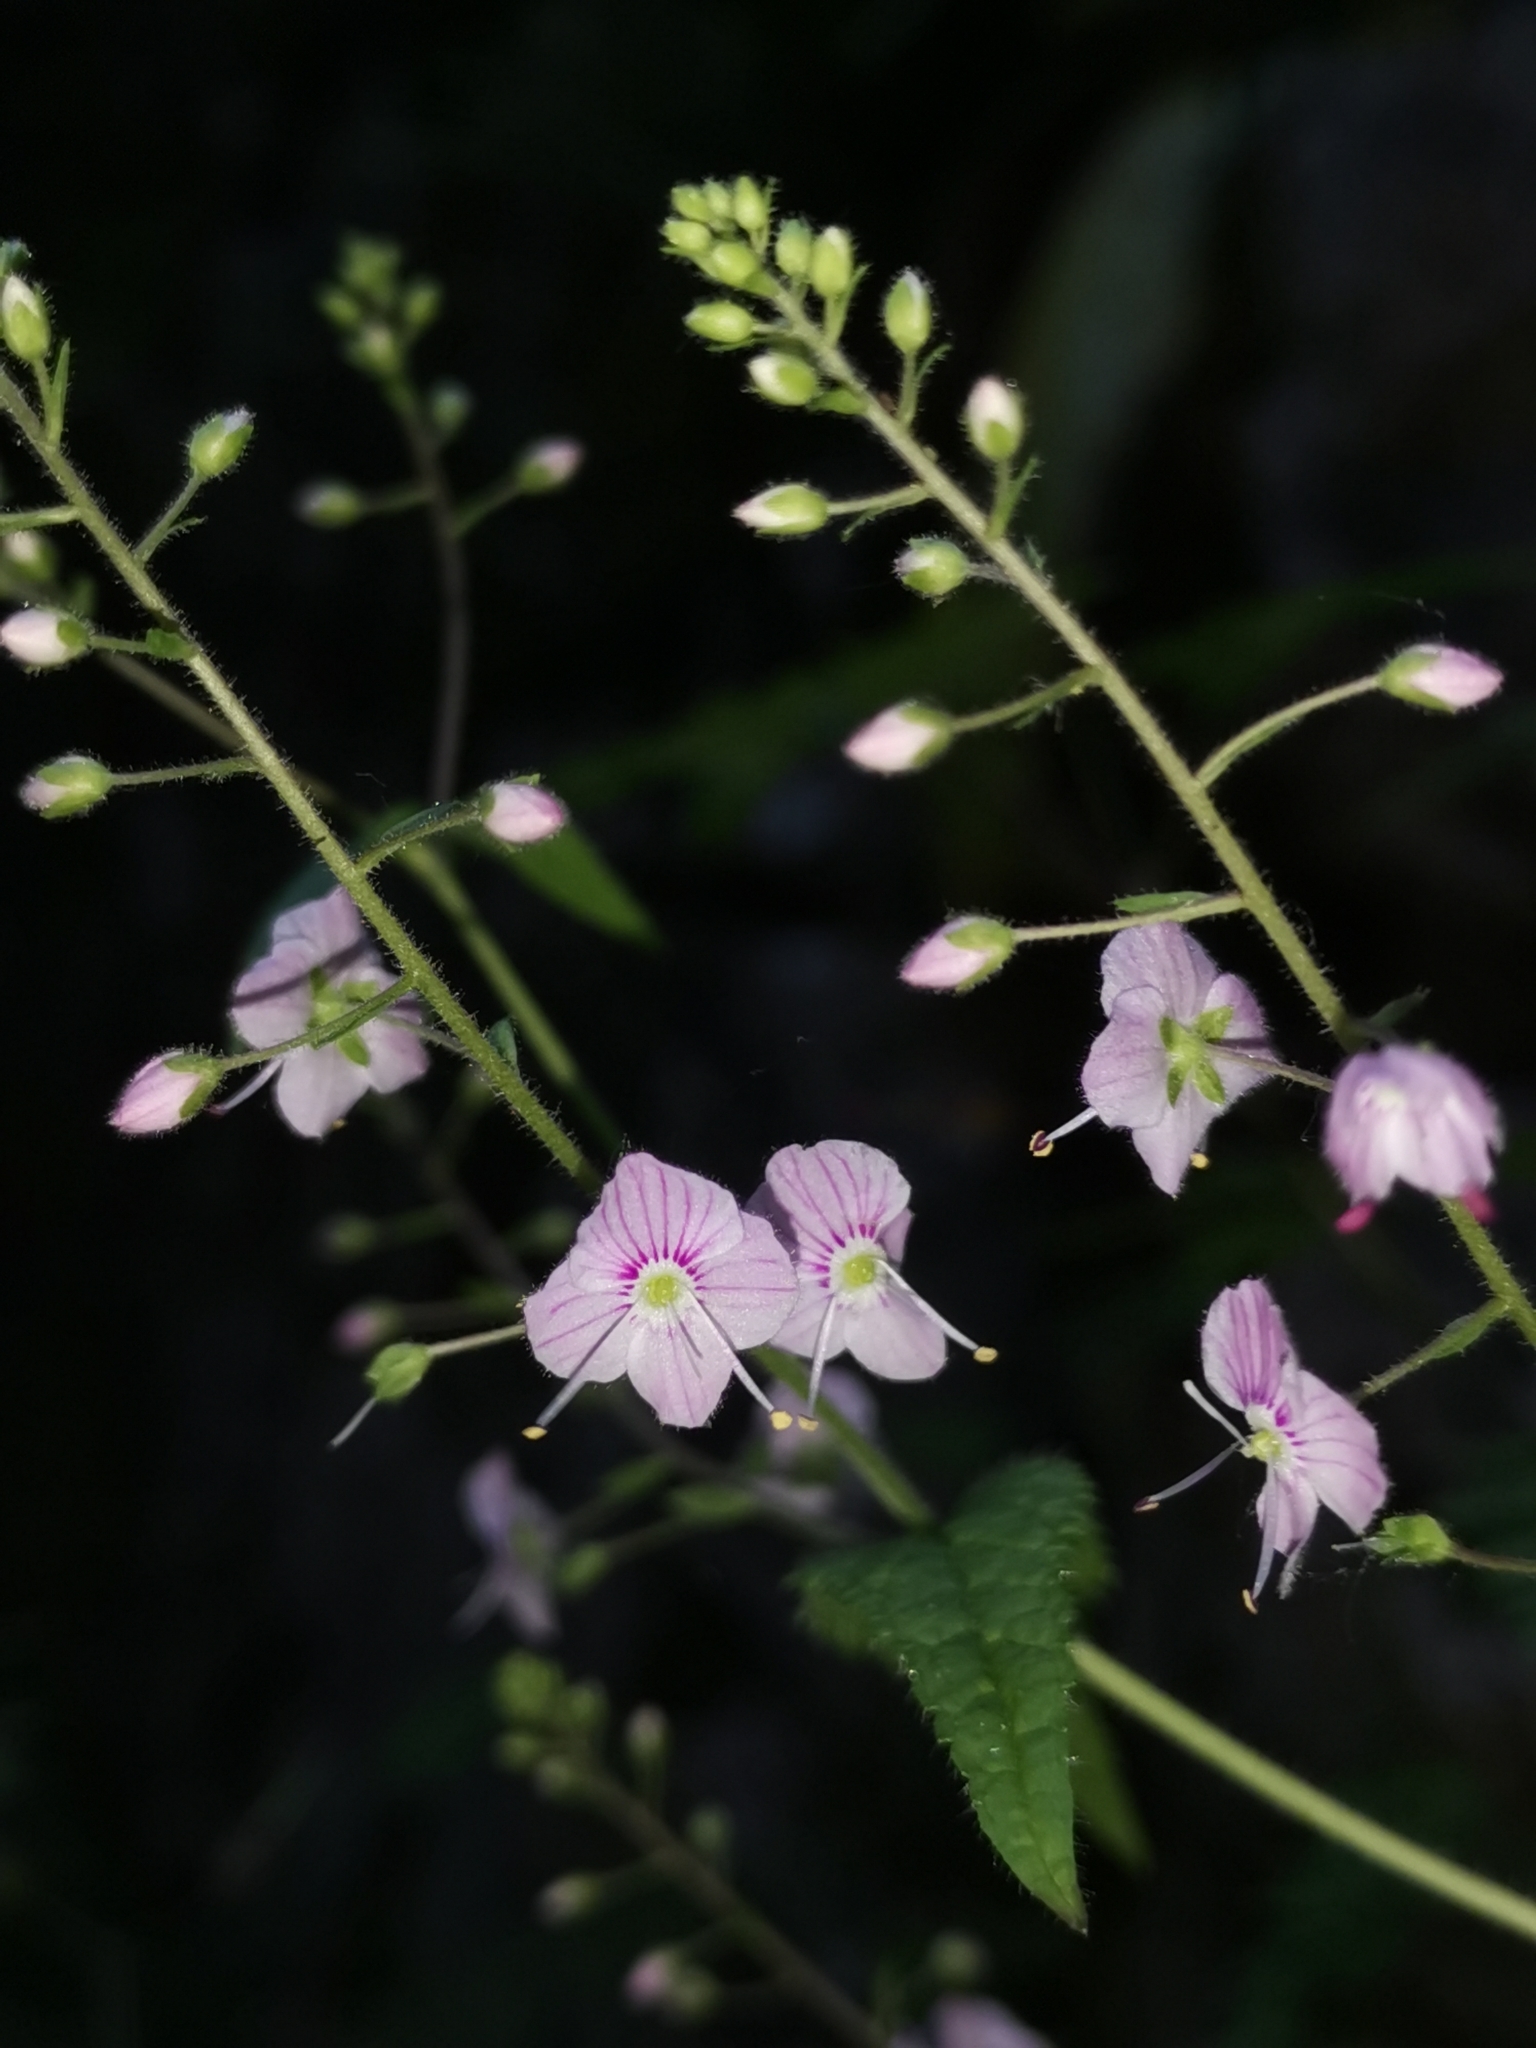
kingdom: Plantae
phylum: Tracheophyta
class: Magnoliopsida
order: Lamiales
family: Plantaginaceae
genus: Veronica
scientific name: Veronica urticifolia
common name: Nettle-leaf speedwell
